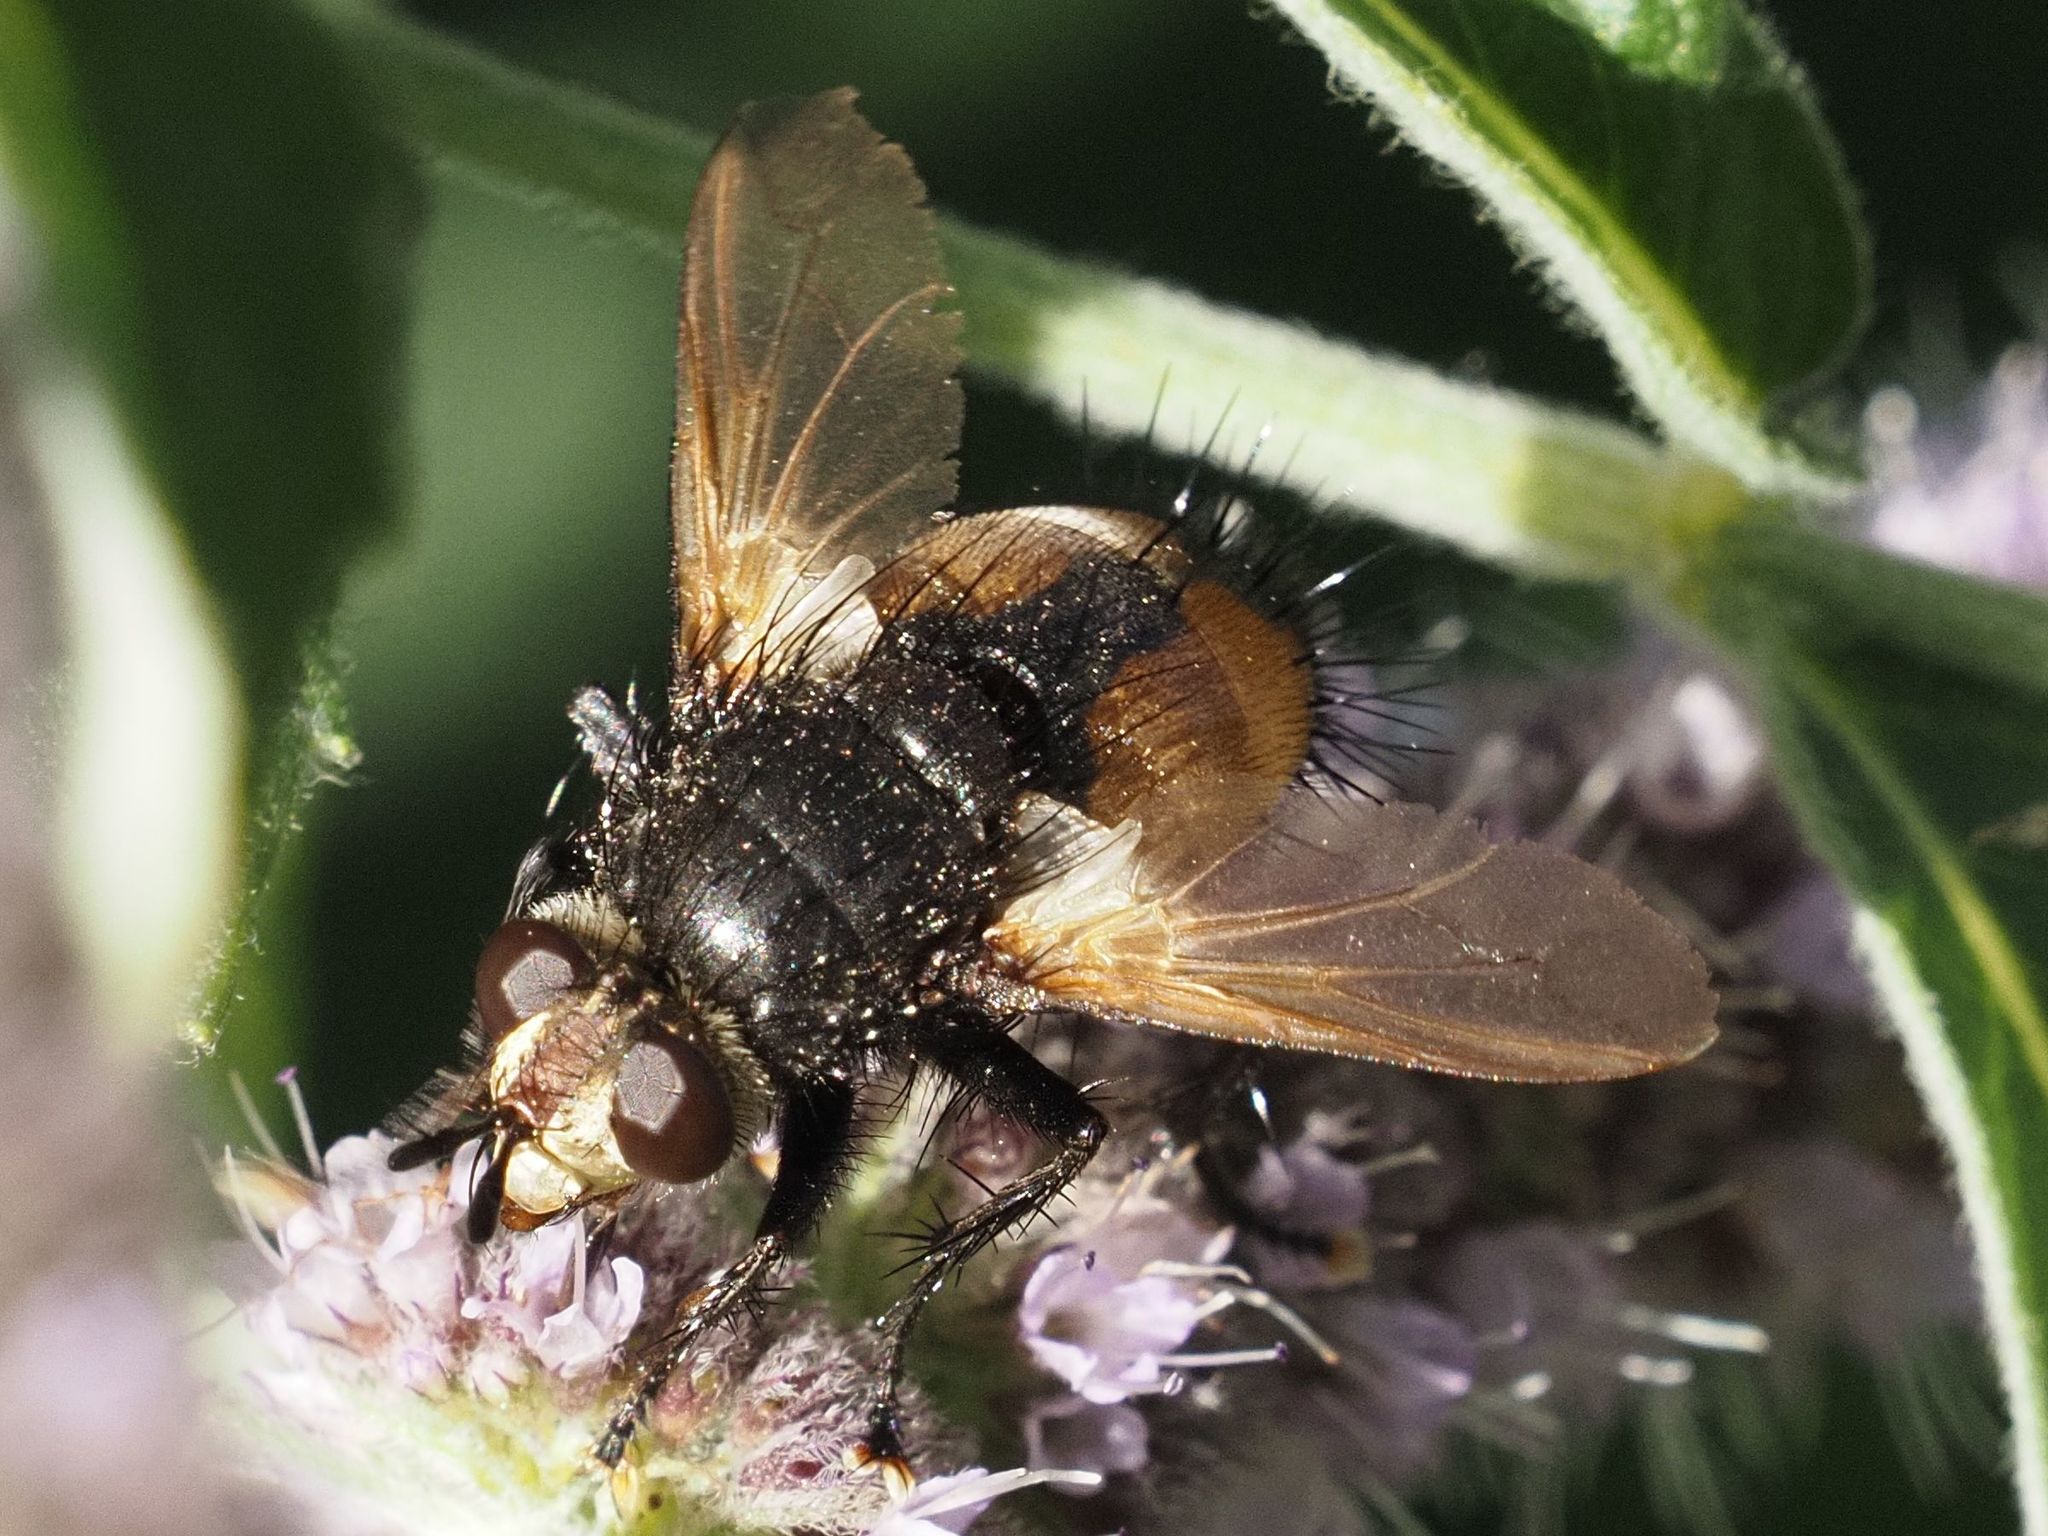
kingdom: Animalia
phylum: Arthropoda
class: Insecta
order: Diptera
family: Tachinidae
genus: Nowickia
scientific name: Nowickia ferox
